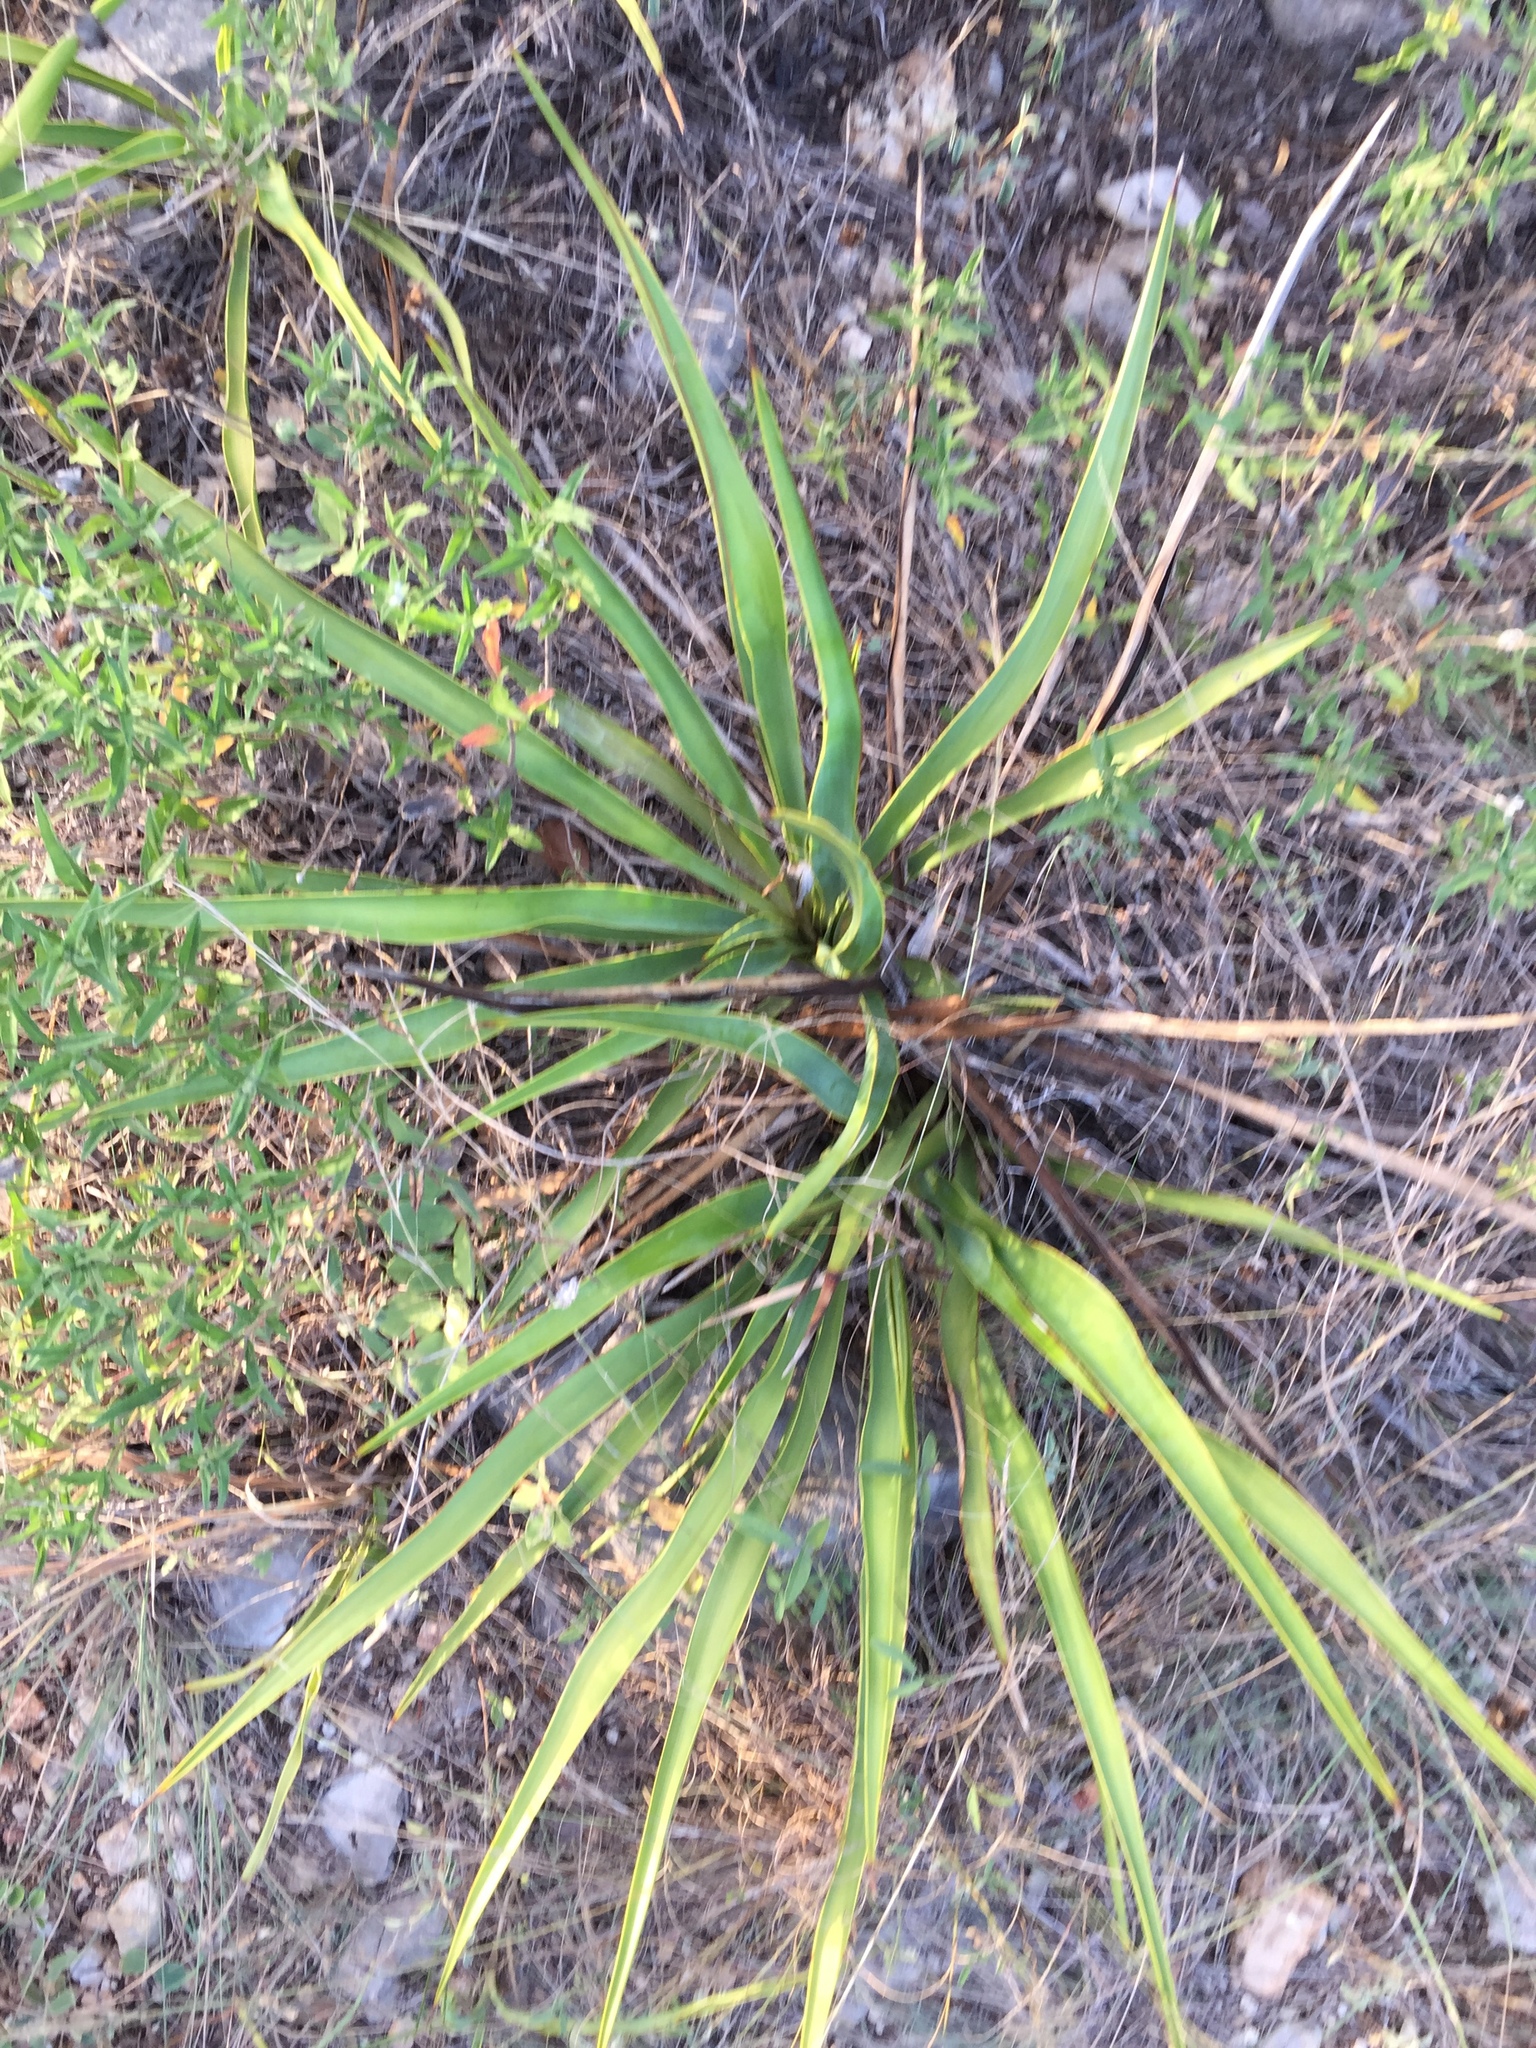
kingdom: Plantae
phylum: Tracheophyta
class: Liliopsida
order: Asparagales
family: Asparagaceae
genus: Yucca
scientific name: Yucca rupicola
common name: Twisted-leaf spanish-dagger
